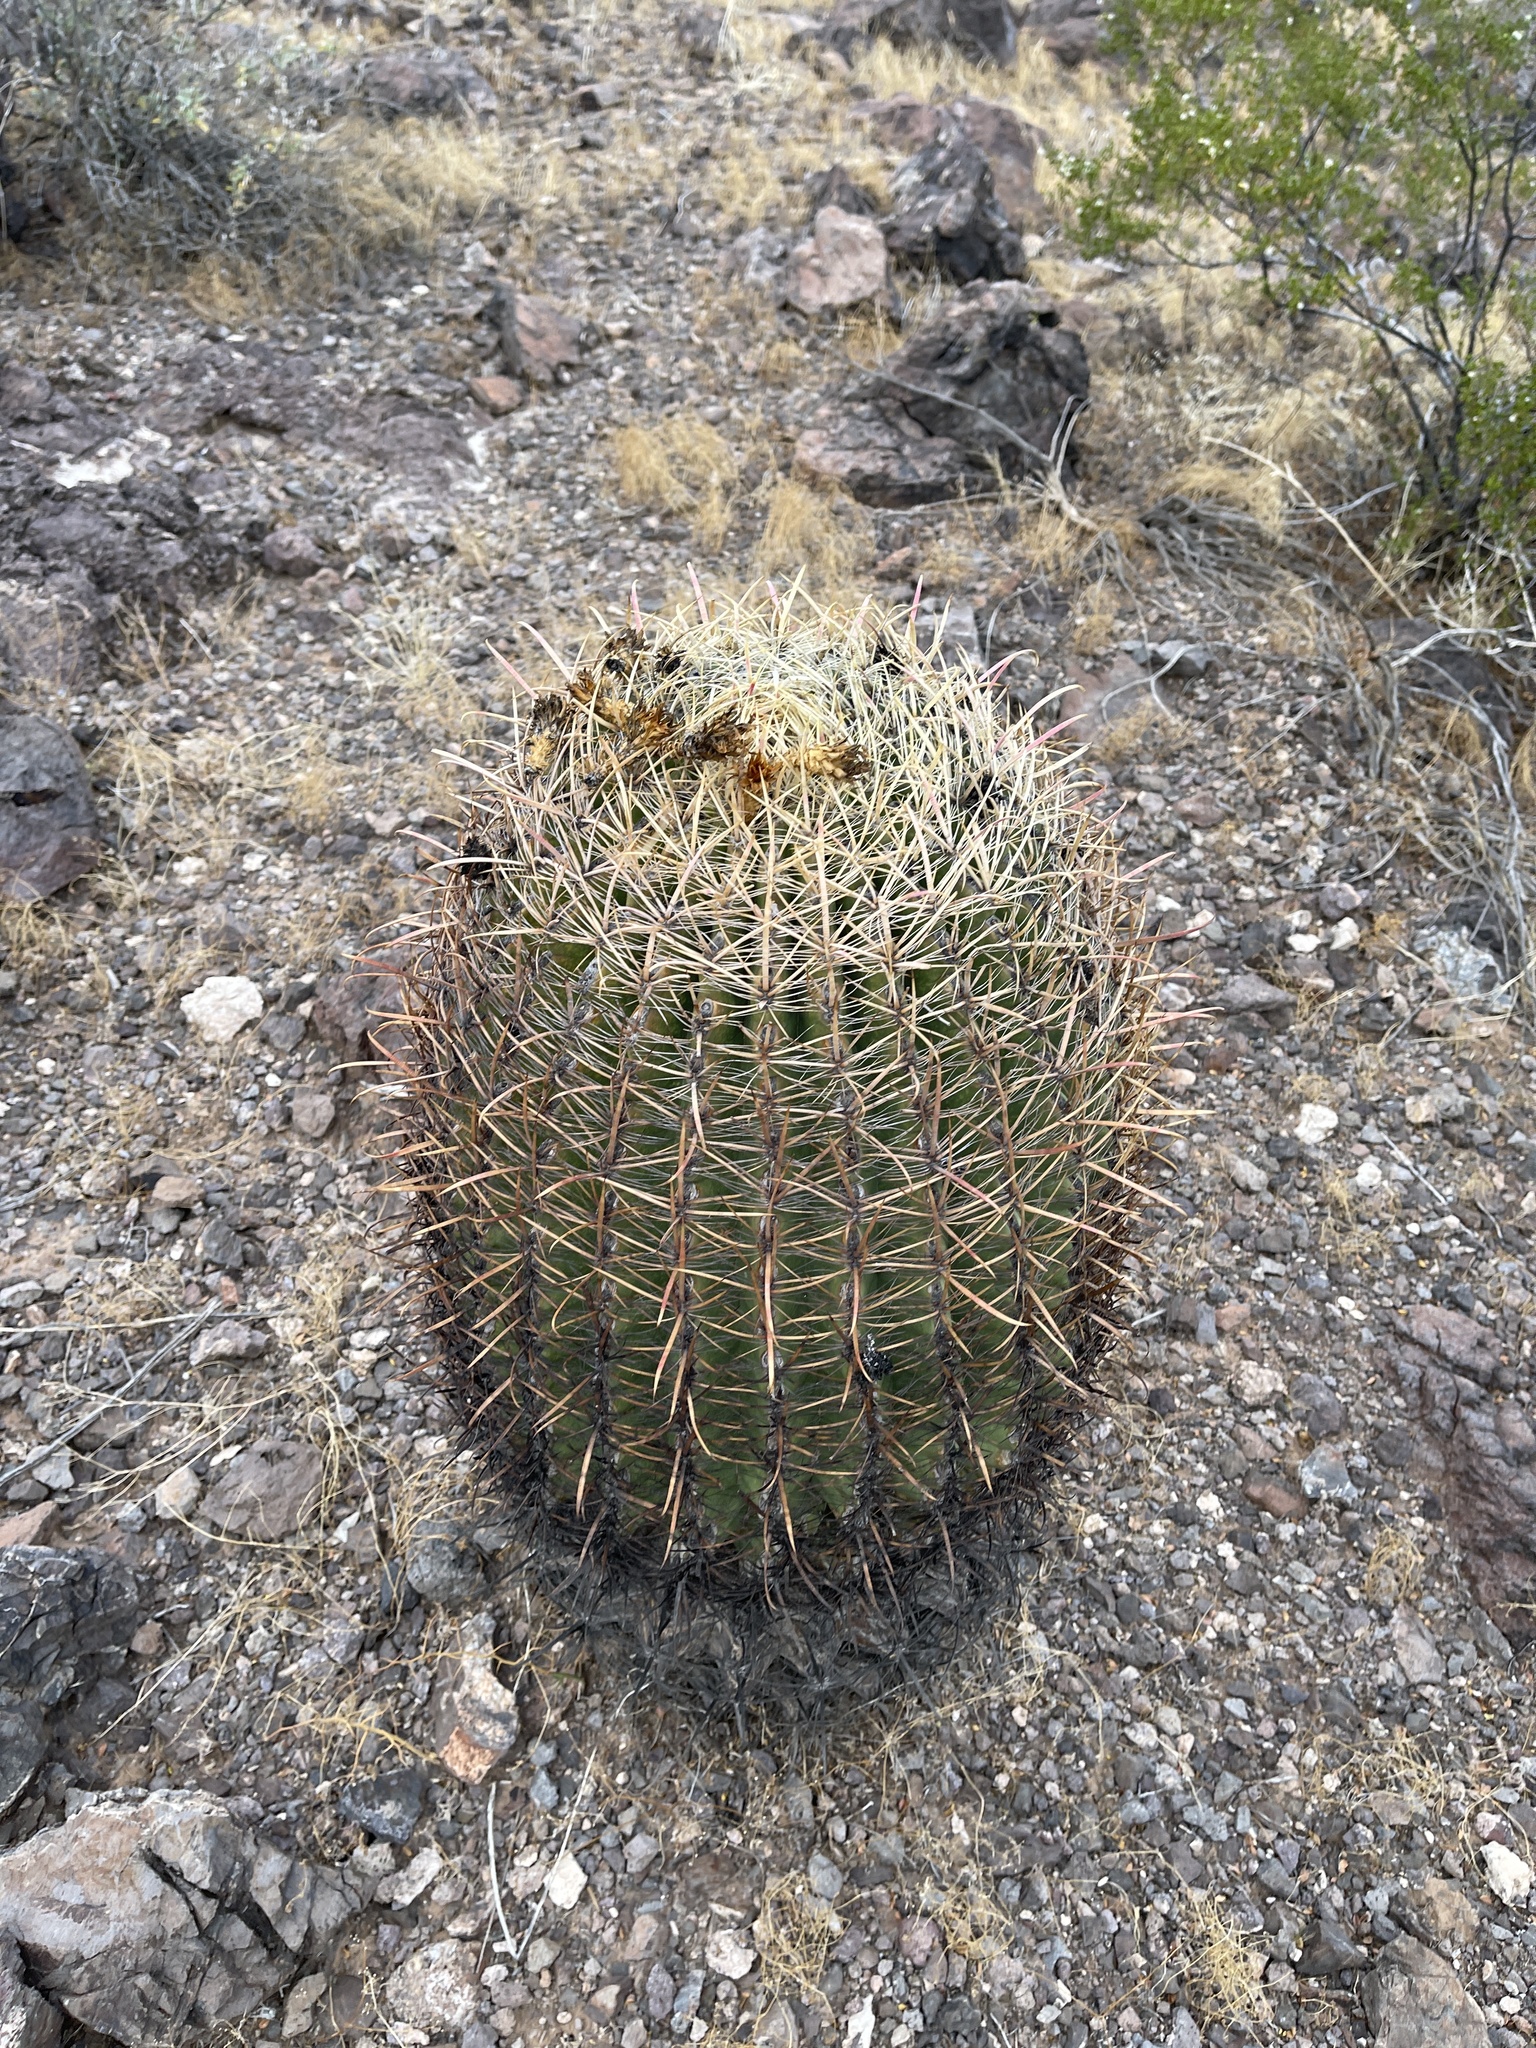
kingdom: Plantae
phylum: Tracheophyta
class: Magnoliopsida
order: Caryophyllales
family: Cactaceae
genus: Ferocactus
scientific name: Ferocactus cylindraceus
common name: California barrel cactus
